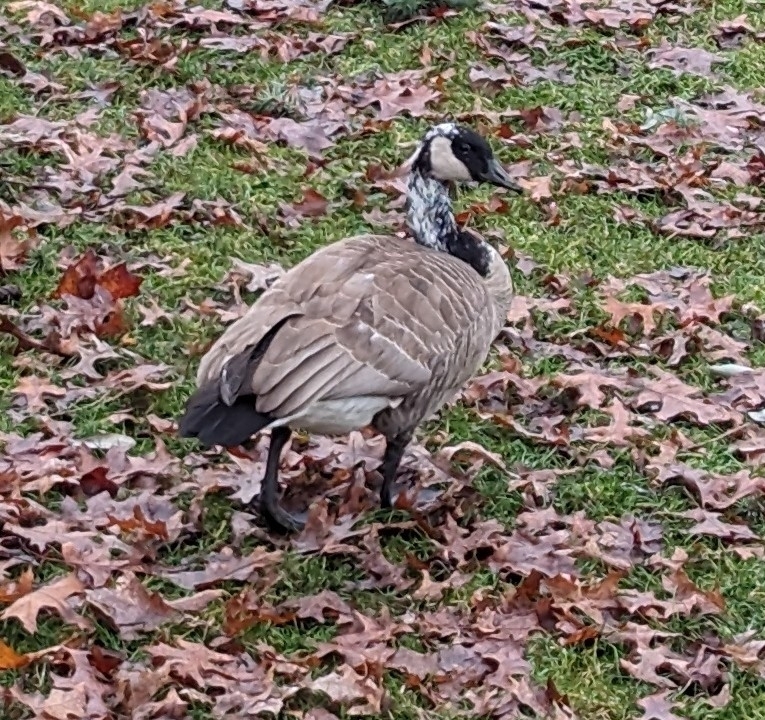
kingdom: Animalia
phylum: Chordata
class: Aves
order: Anseriformes
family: Anatidae
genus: Branta
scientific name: Branta canadensis
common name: Canada goose
